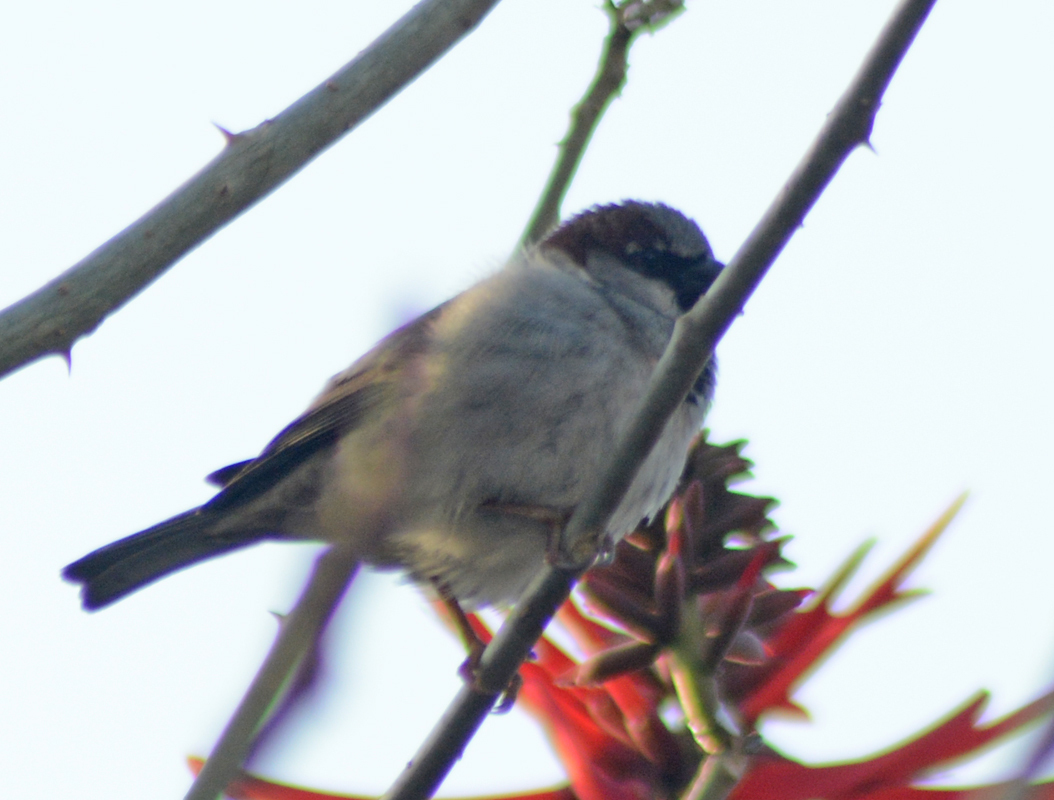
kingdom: Animalia
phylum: Chordata
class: Aves
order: Passeriformes
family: Passeridae
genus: Passer
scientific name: Passer domesticus
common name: House sparrow
